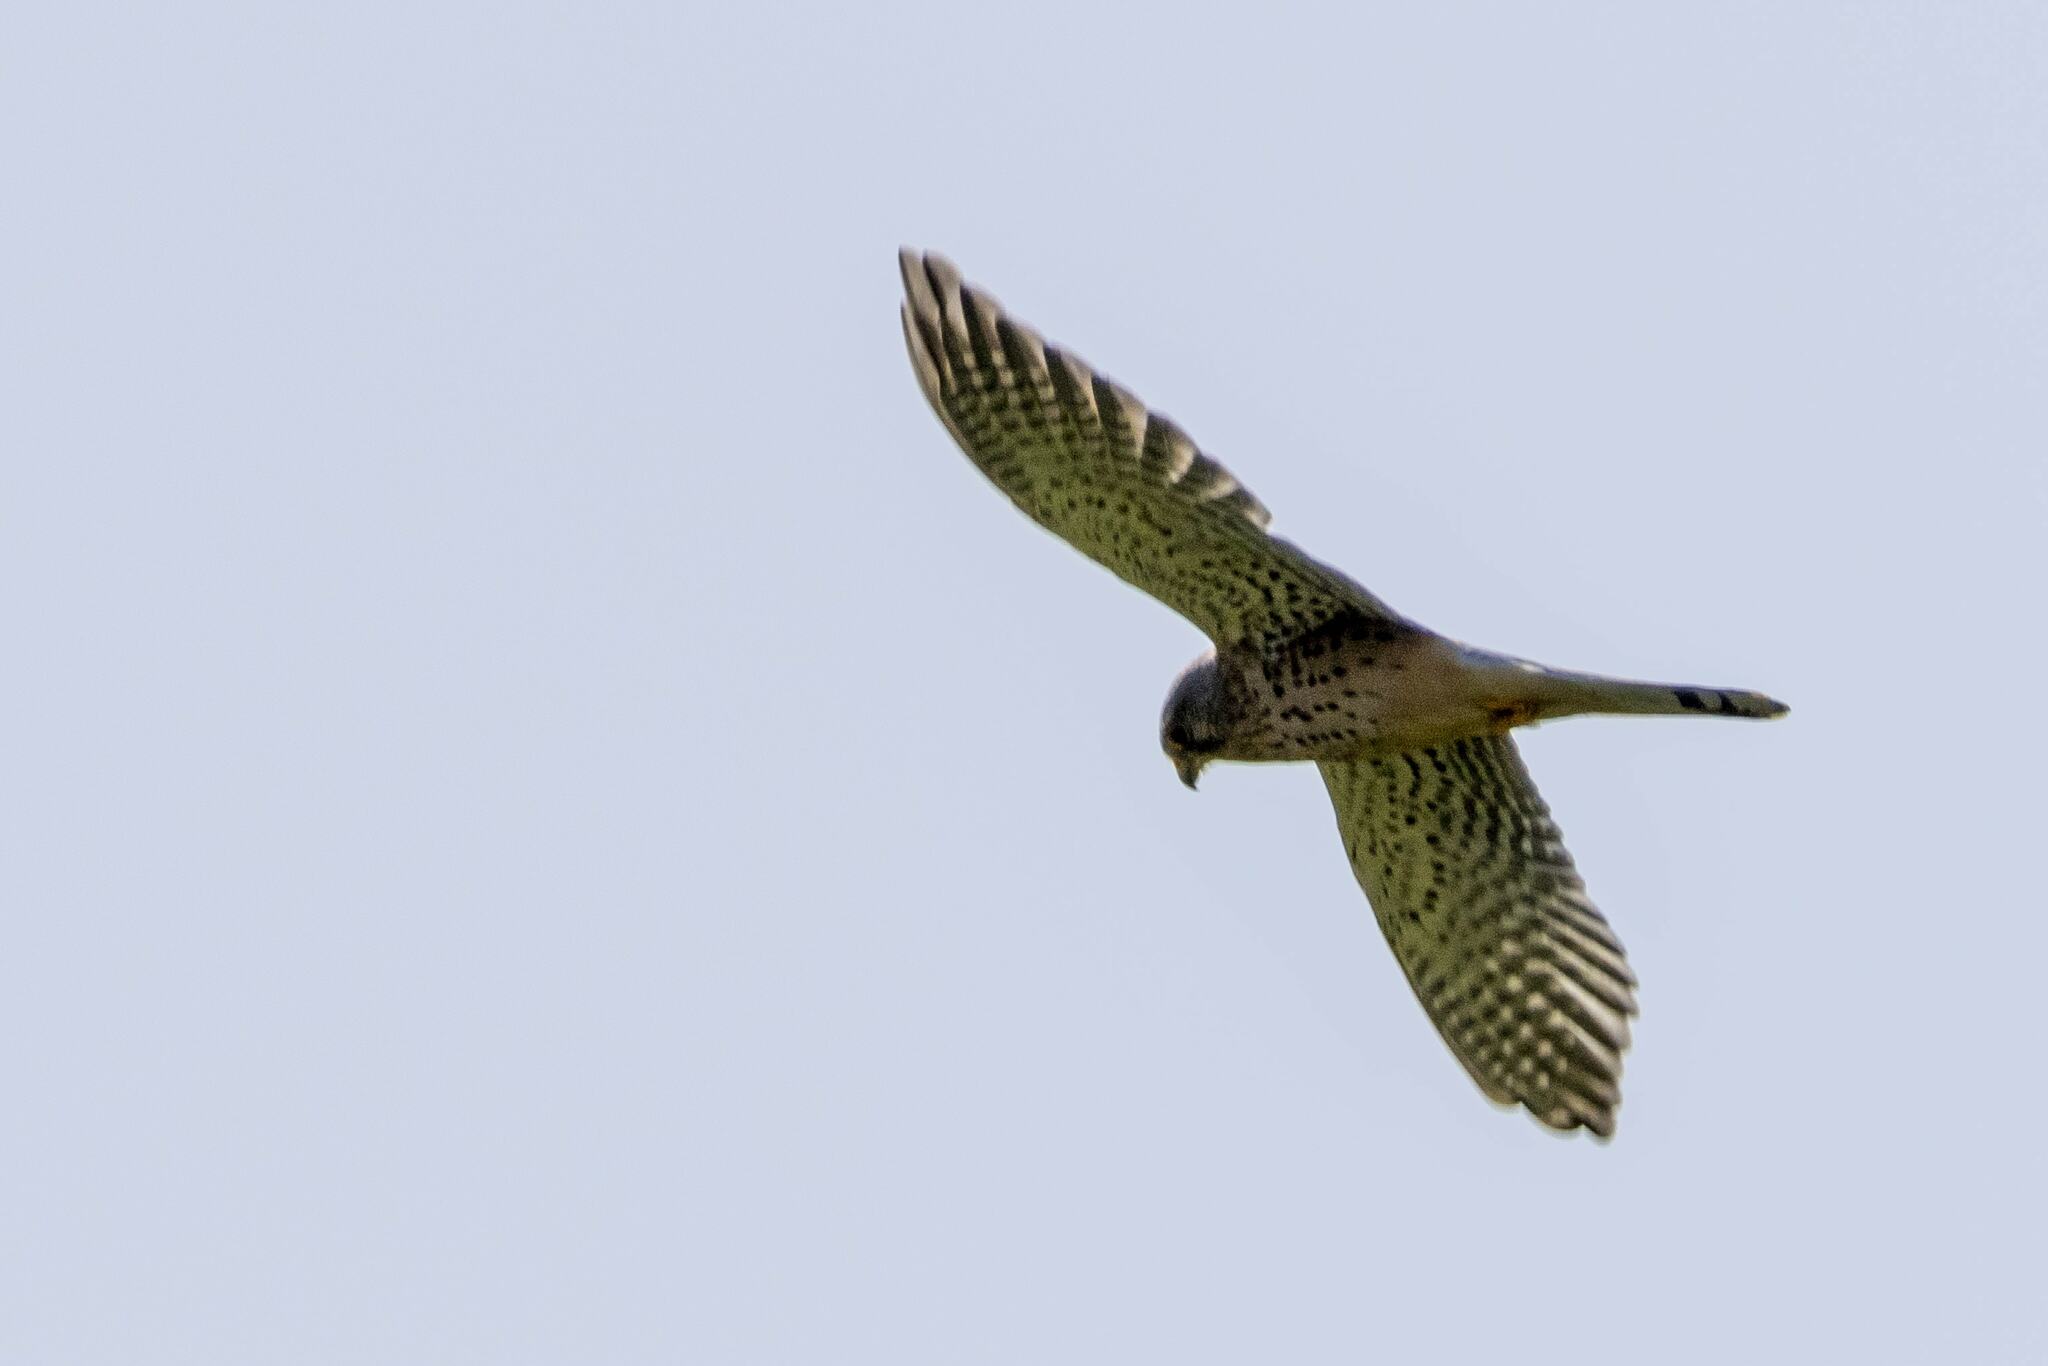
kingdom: Animalia
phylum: Chordata
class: Aves
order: Falconiformes
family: Falconidae
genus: Falco
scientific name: Falco tinnunculus
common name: Common kestrel
